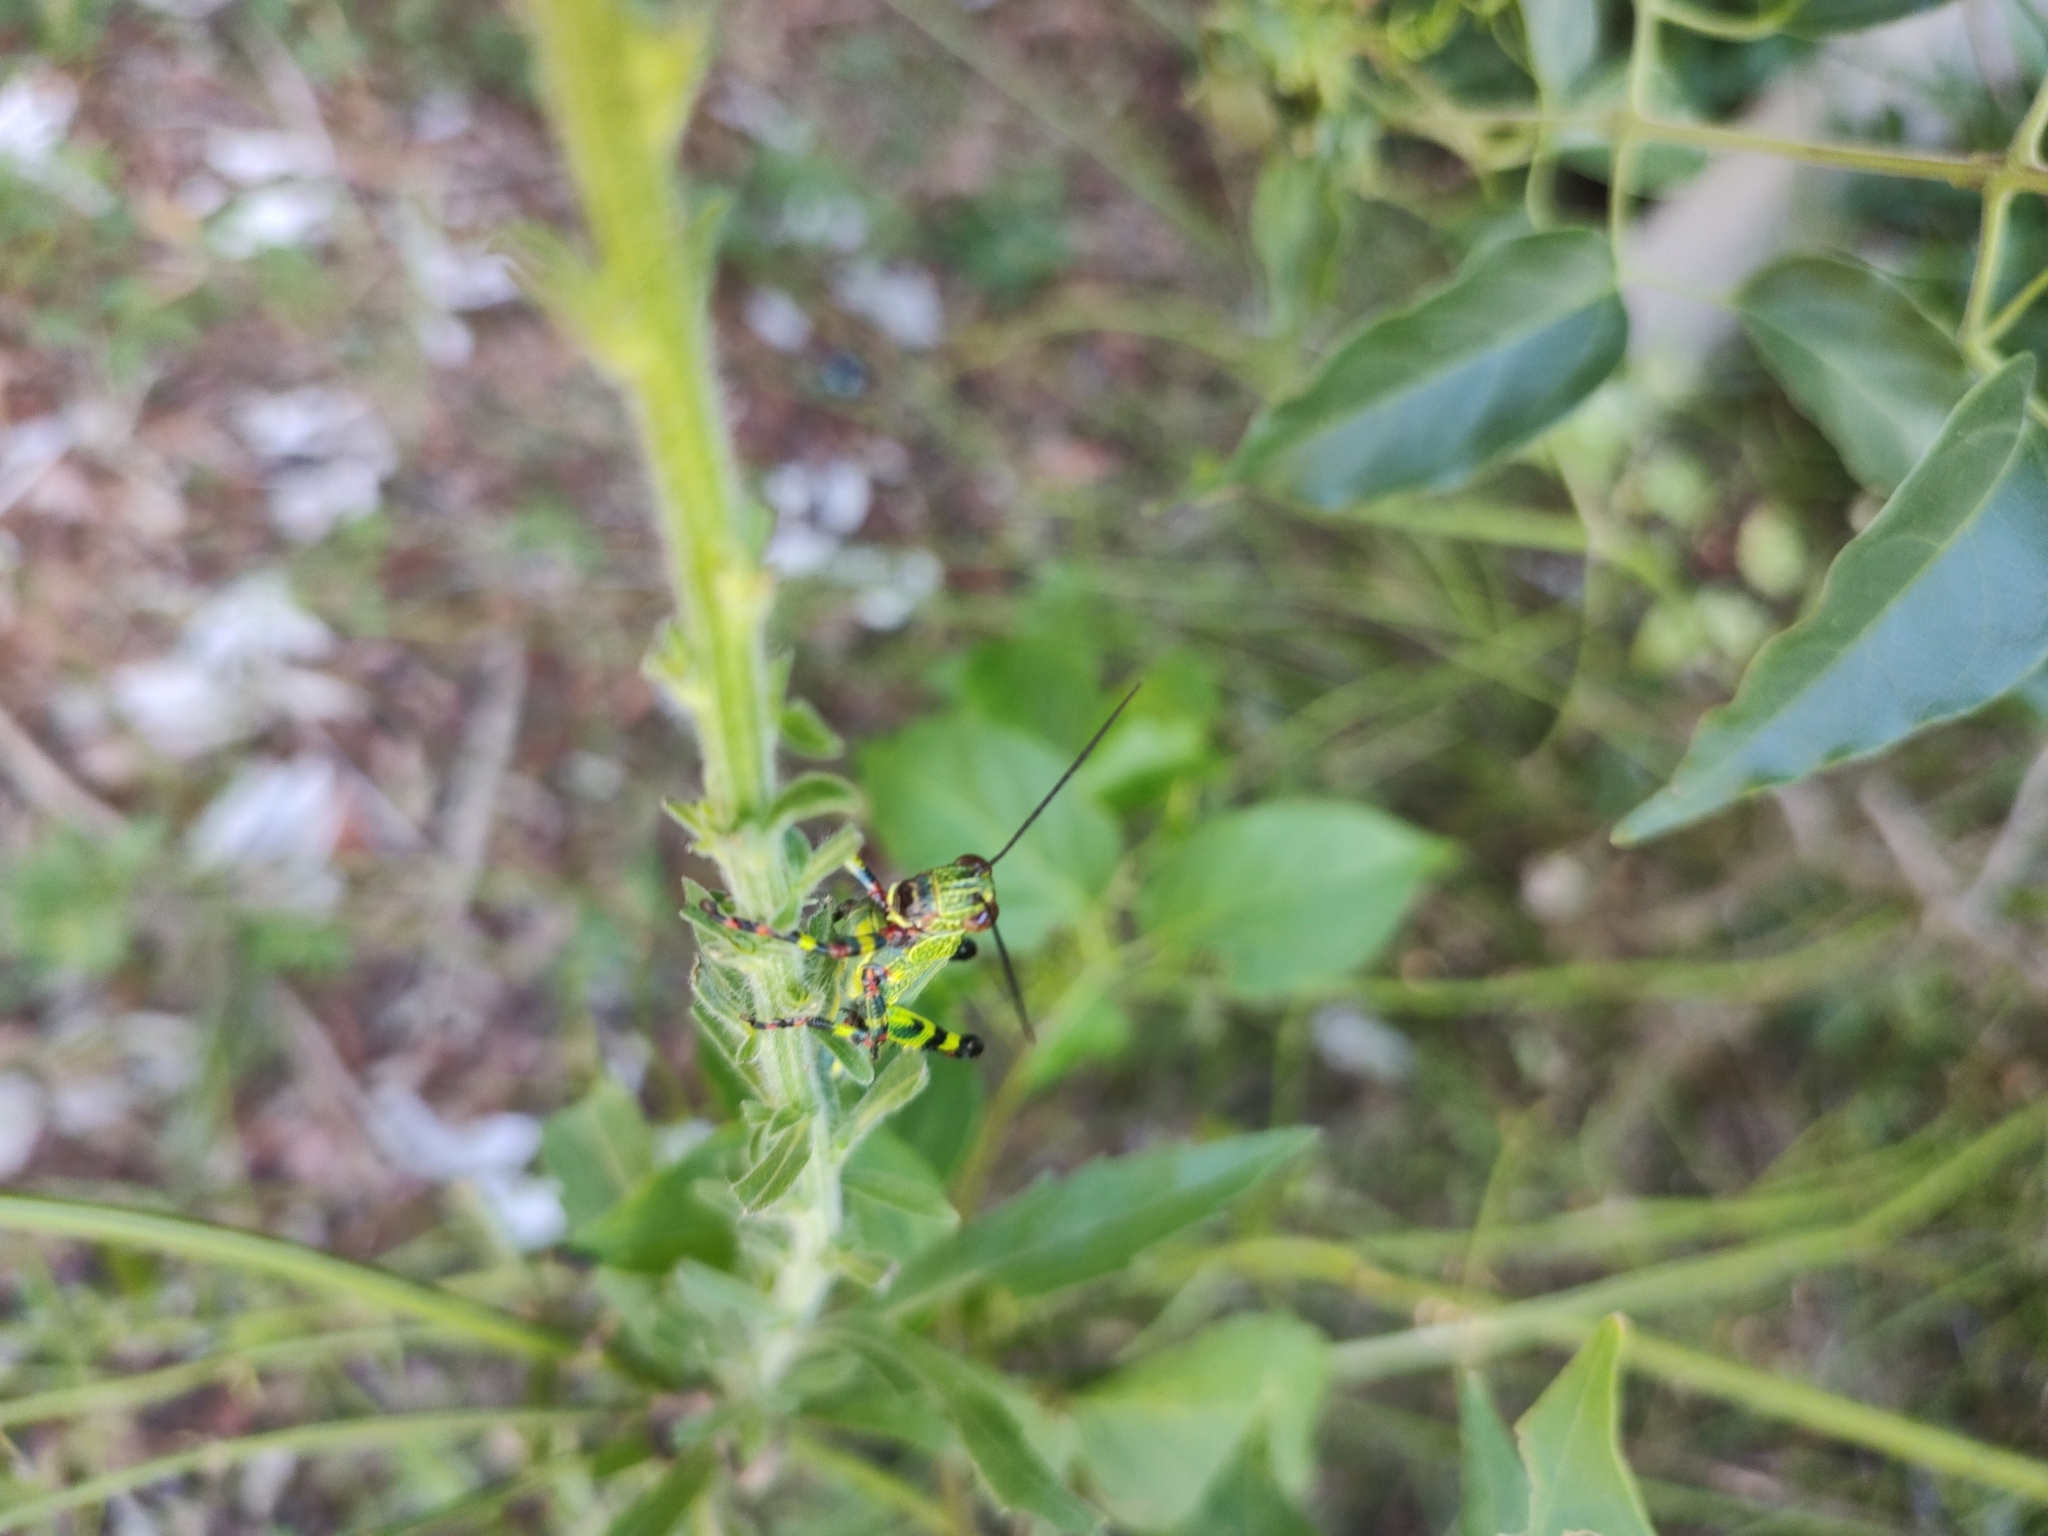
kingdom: Animalia
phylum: Arthropoda
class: Insecta
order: Orthoptera
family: Romaleidae
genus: Zoniopoda
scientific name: Zoniopoda tarsata
